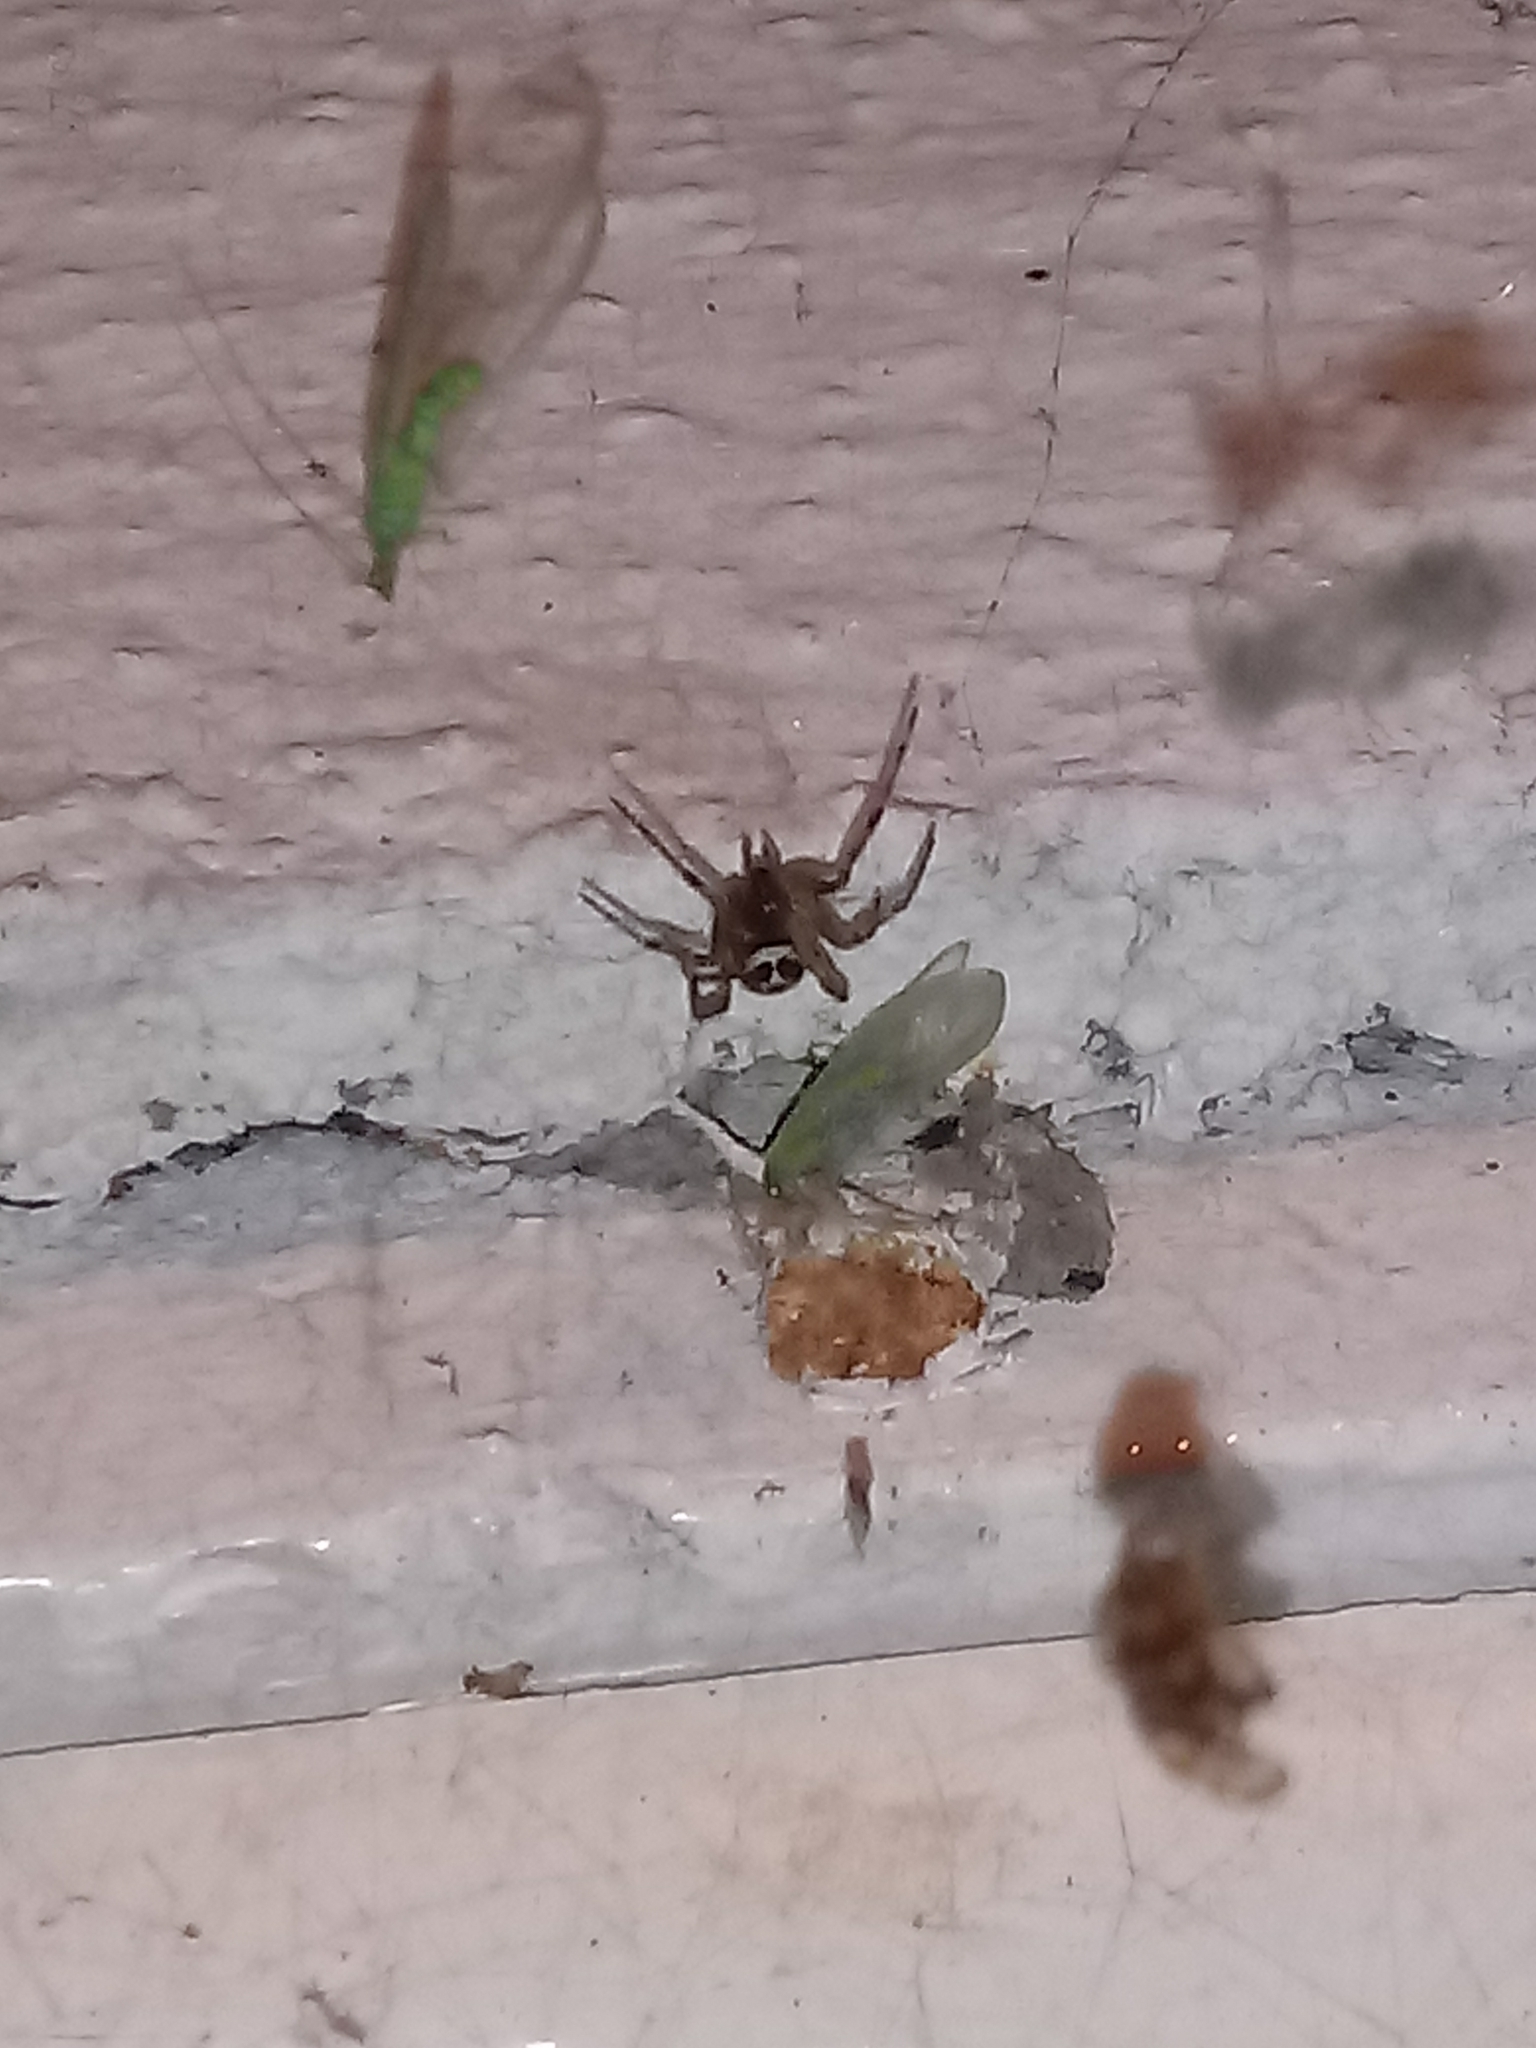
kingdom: Animalia
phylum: Arthropoda
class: Arachnida
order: Araneae
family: Theridiidae
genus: Steatoda
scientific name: Steatoda nobilis
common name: Cobweb weaver
